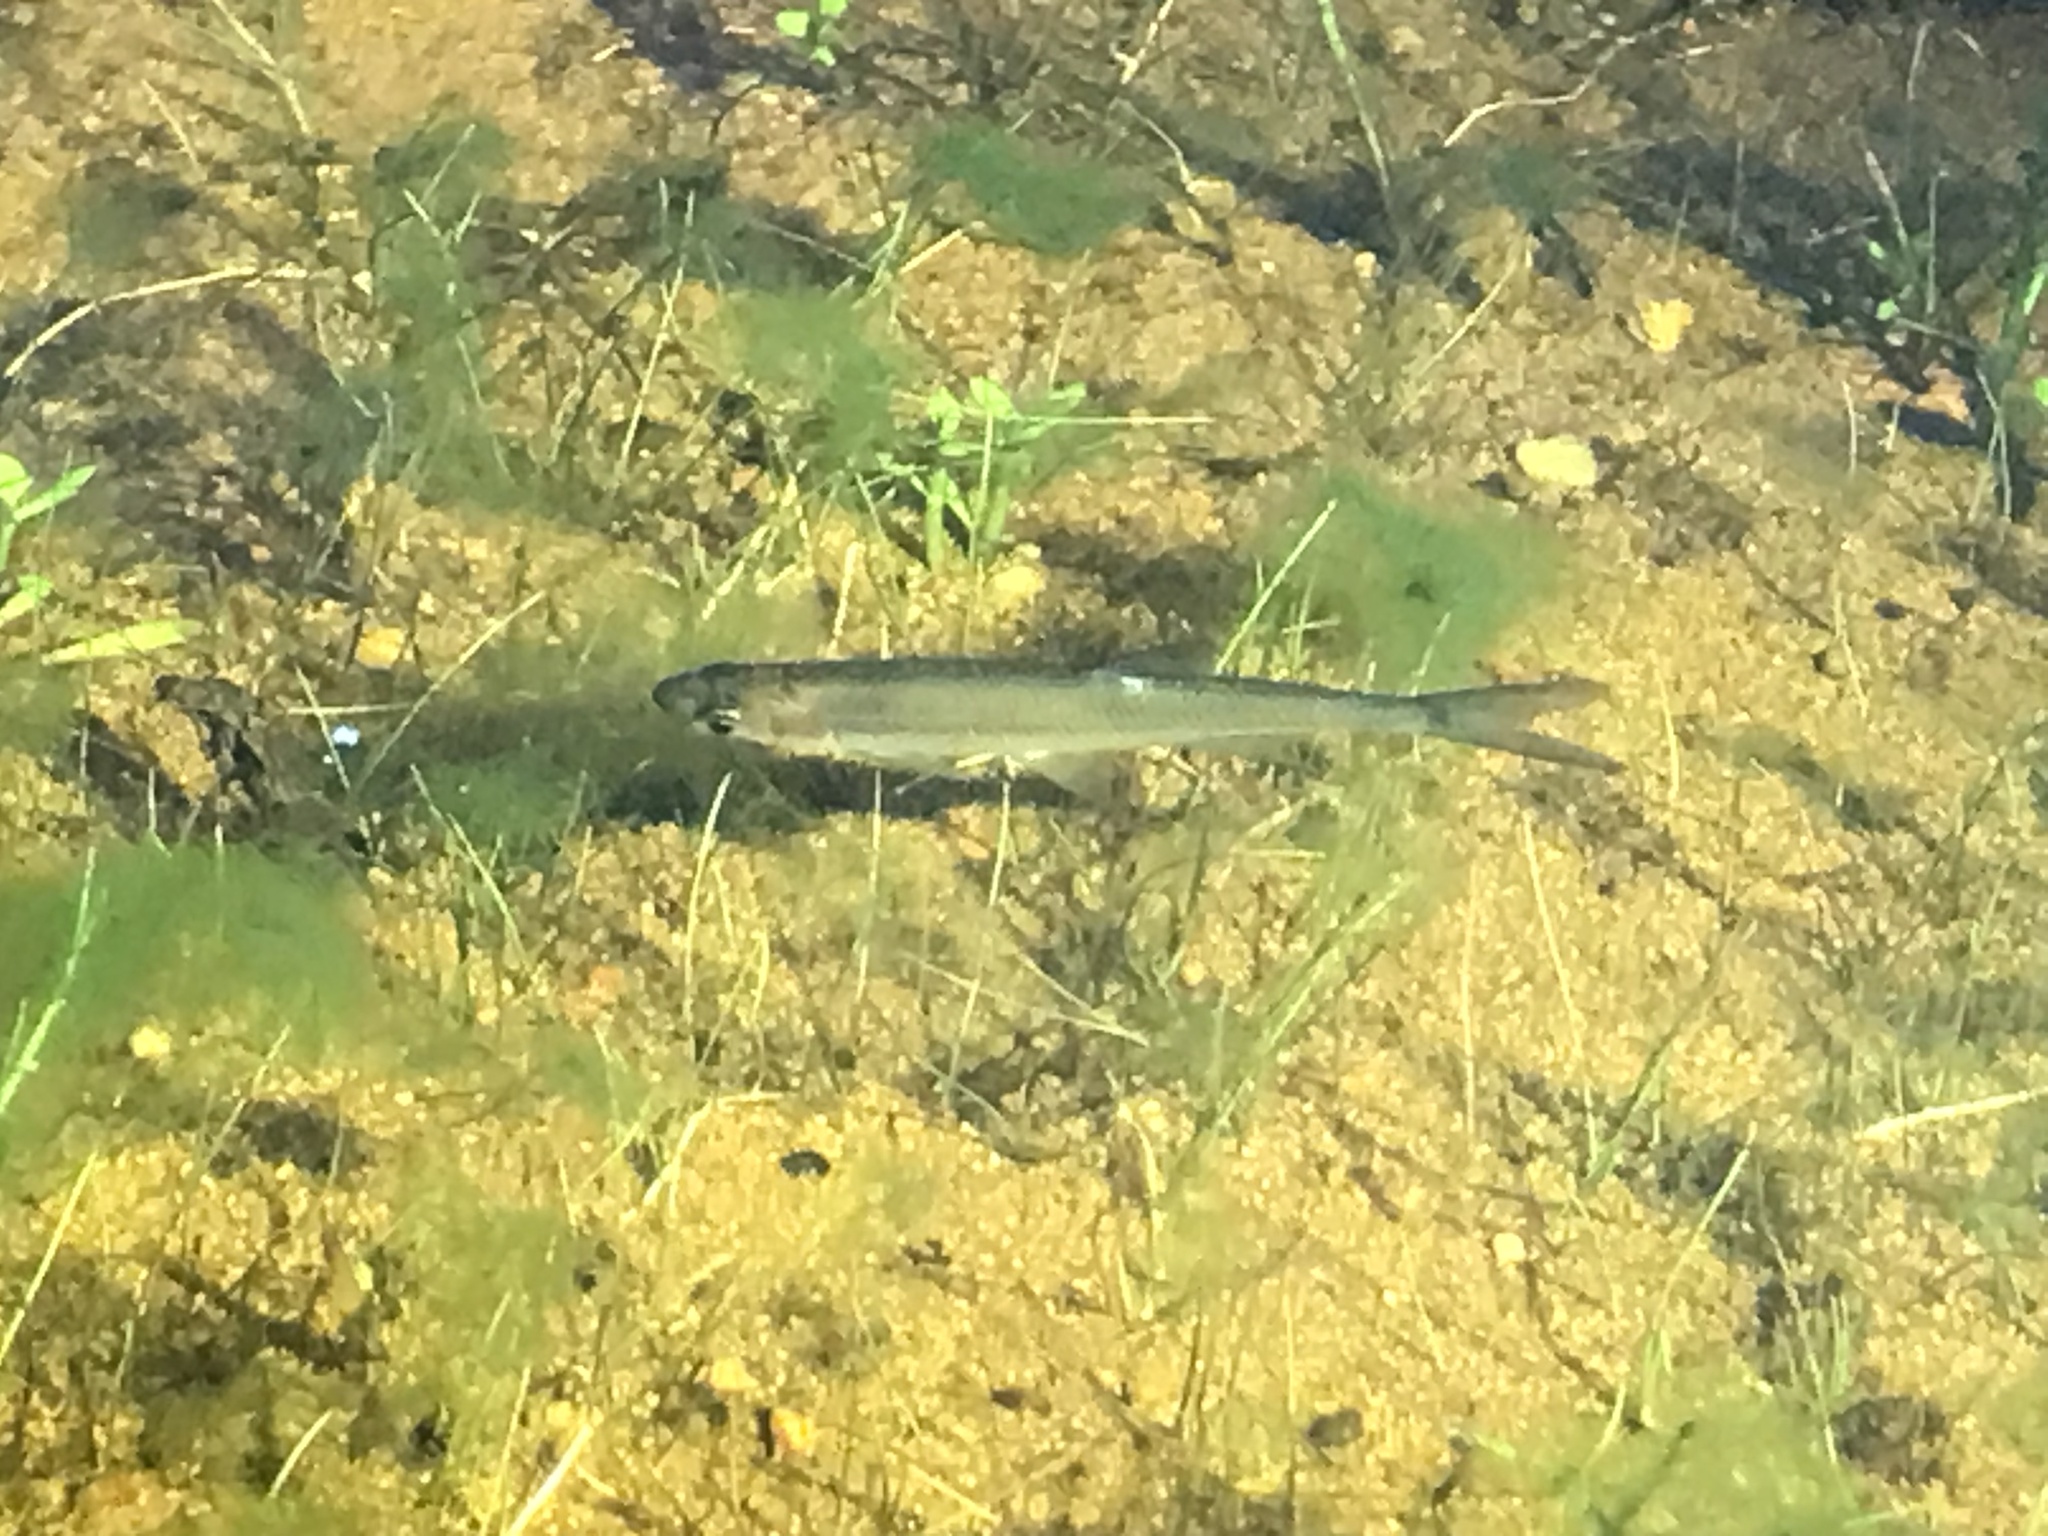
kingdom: Animalia
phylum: Chordata
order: Cypriniformes
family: Cyprinidae
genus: Notemigonus
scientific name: Notemigonus crysoleucas
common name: Golden shiner
